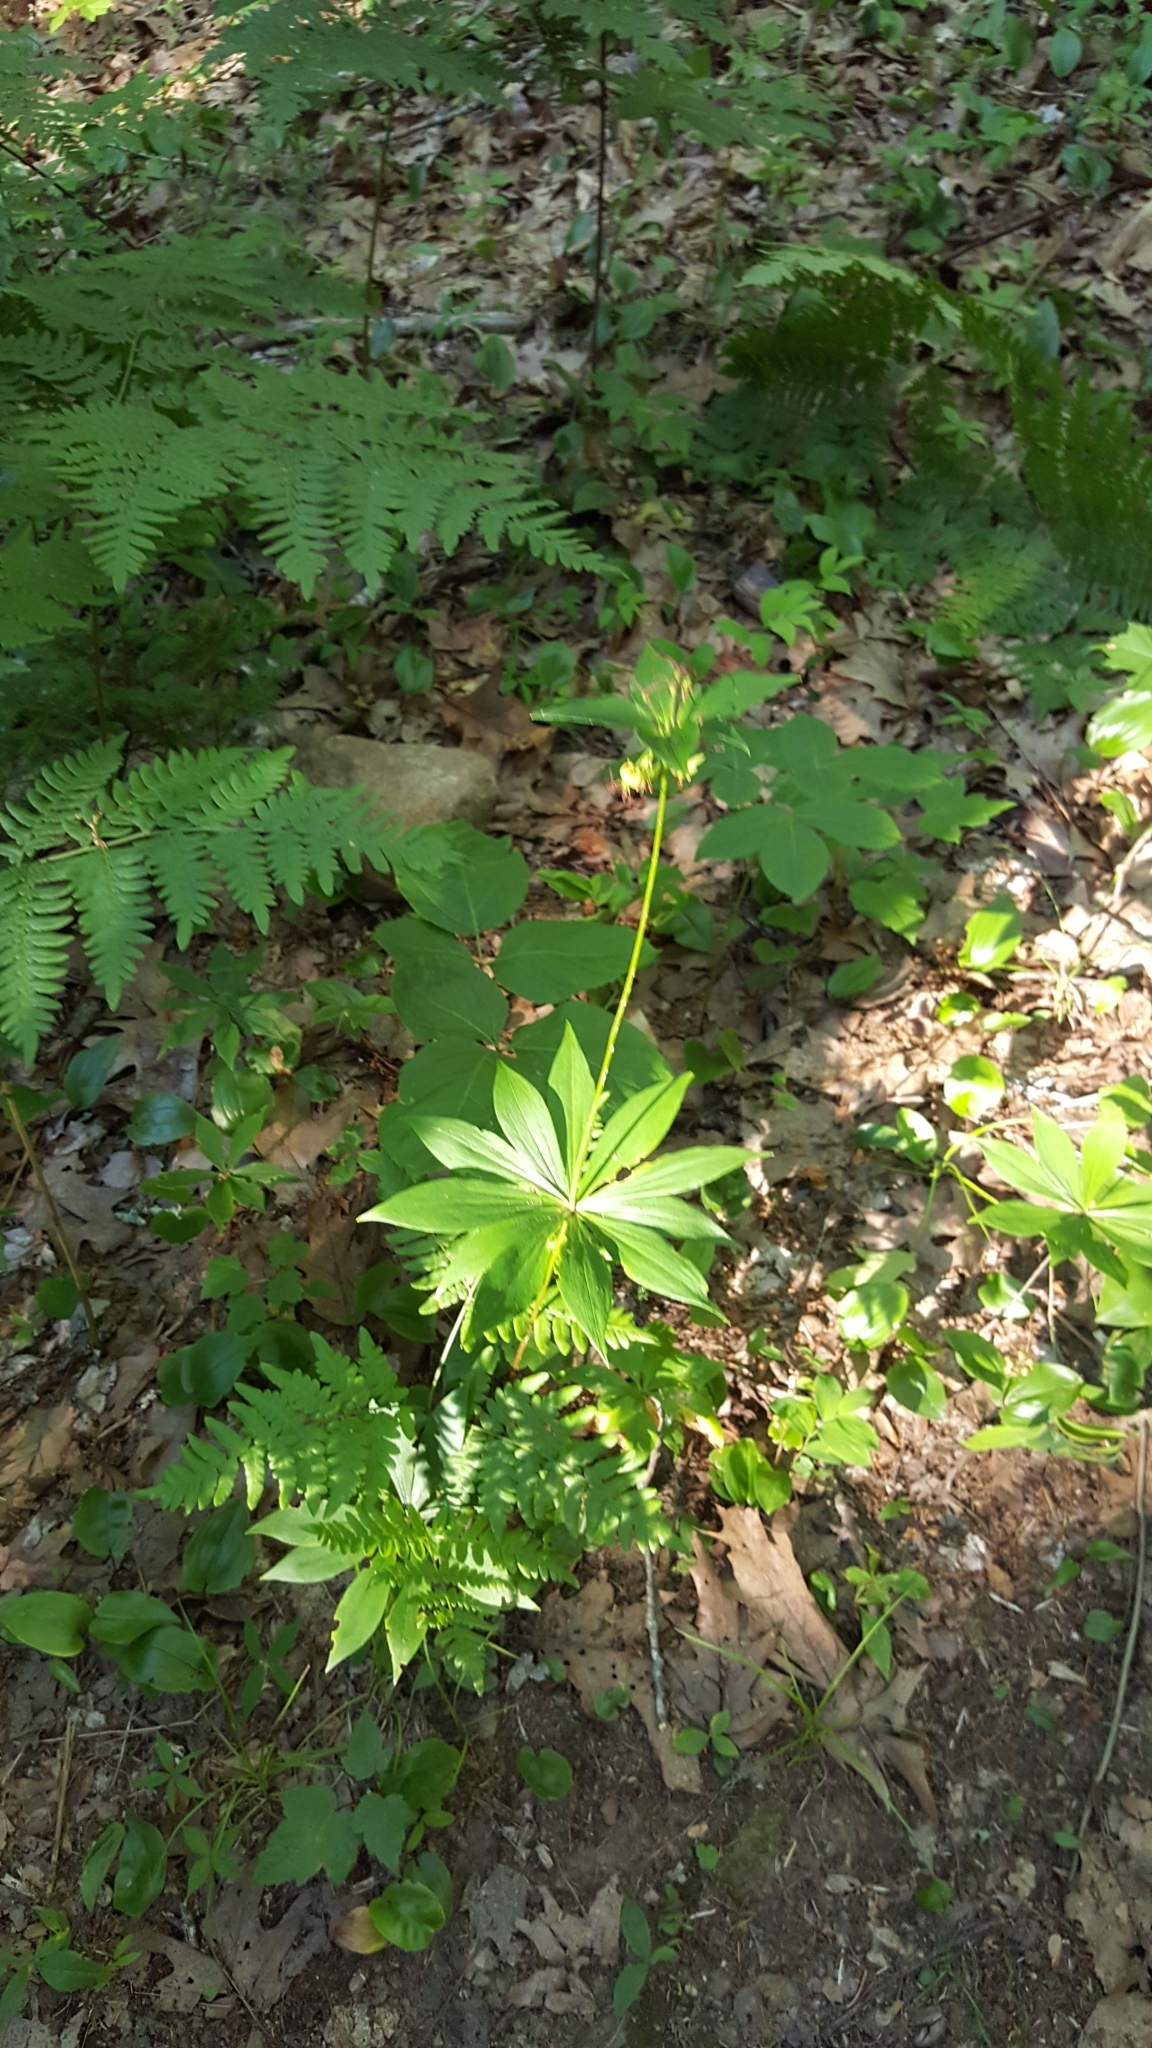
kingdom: Plantae
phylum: Tracheophyta
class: Liliopsida
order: Liliales
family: Liliaceae
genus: Medeola
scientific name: Medeola virginiana
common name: Indian cucumber-root
